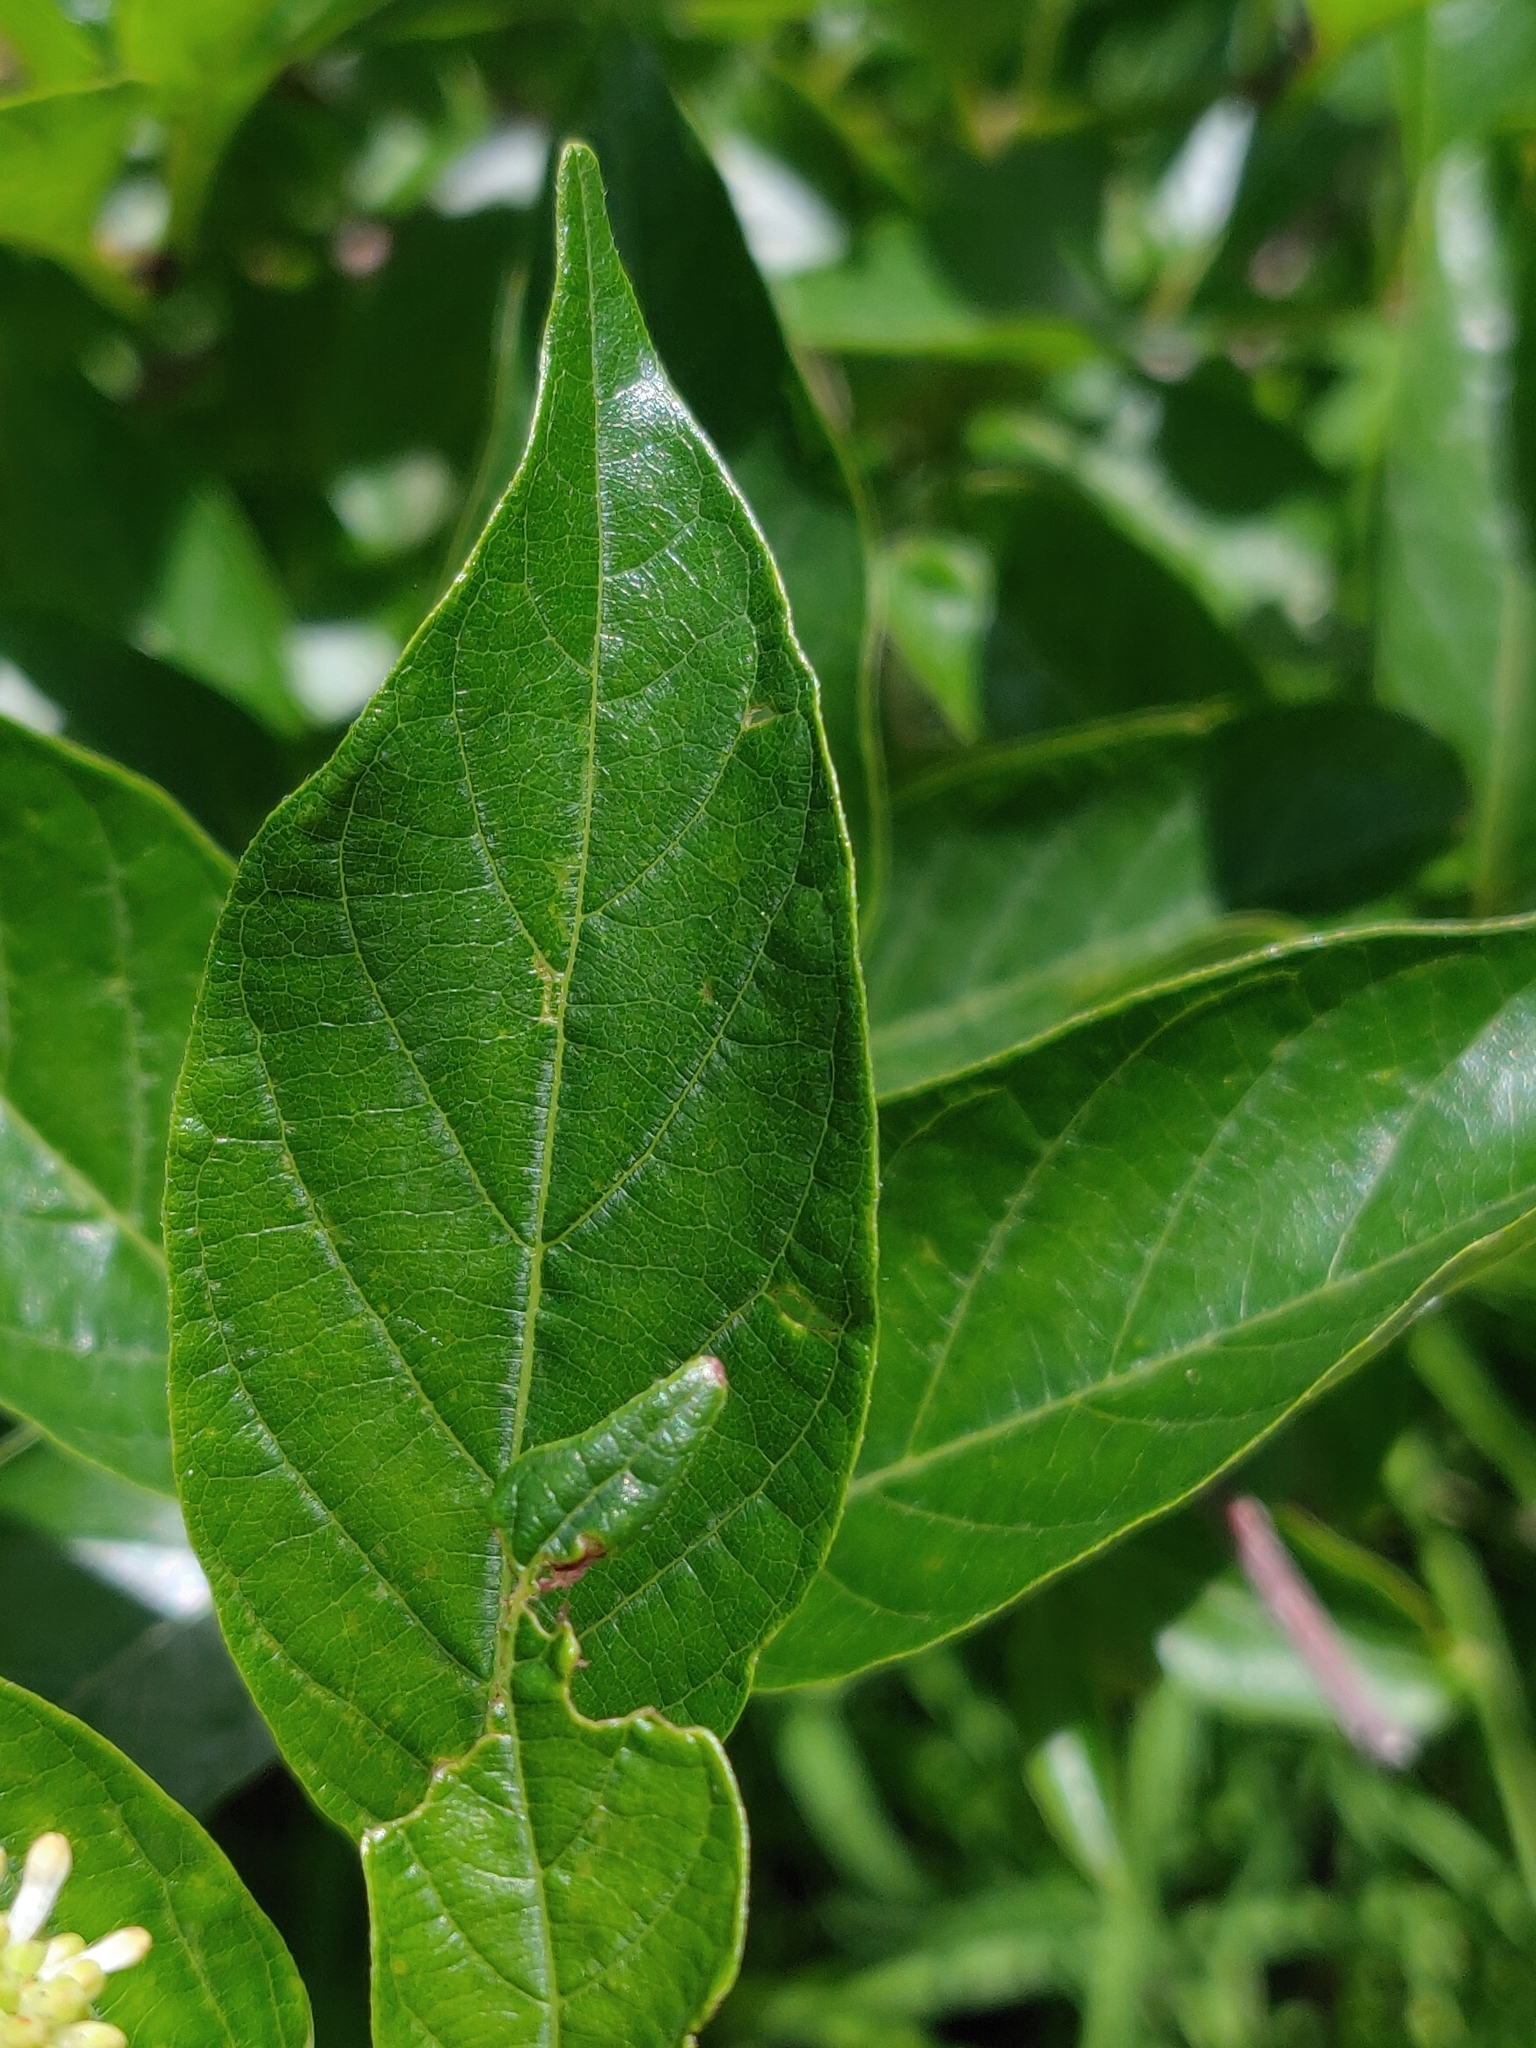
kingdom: Plantae
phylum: Tracheophyta
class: Magnoliopsida
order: Gentianales
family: Rubiaceae
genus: Cephalanthus
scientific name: Cephalanthus occidentalis
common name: Button-willow
